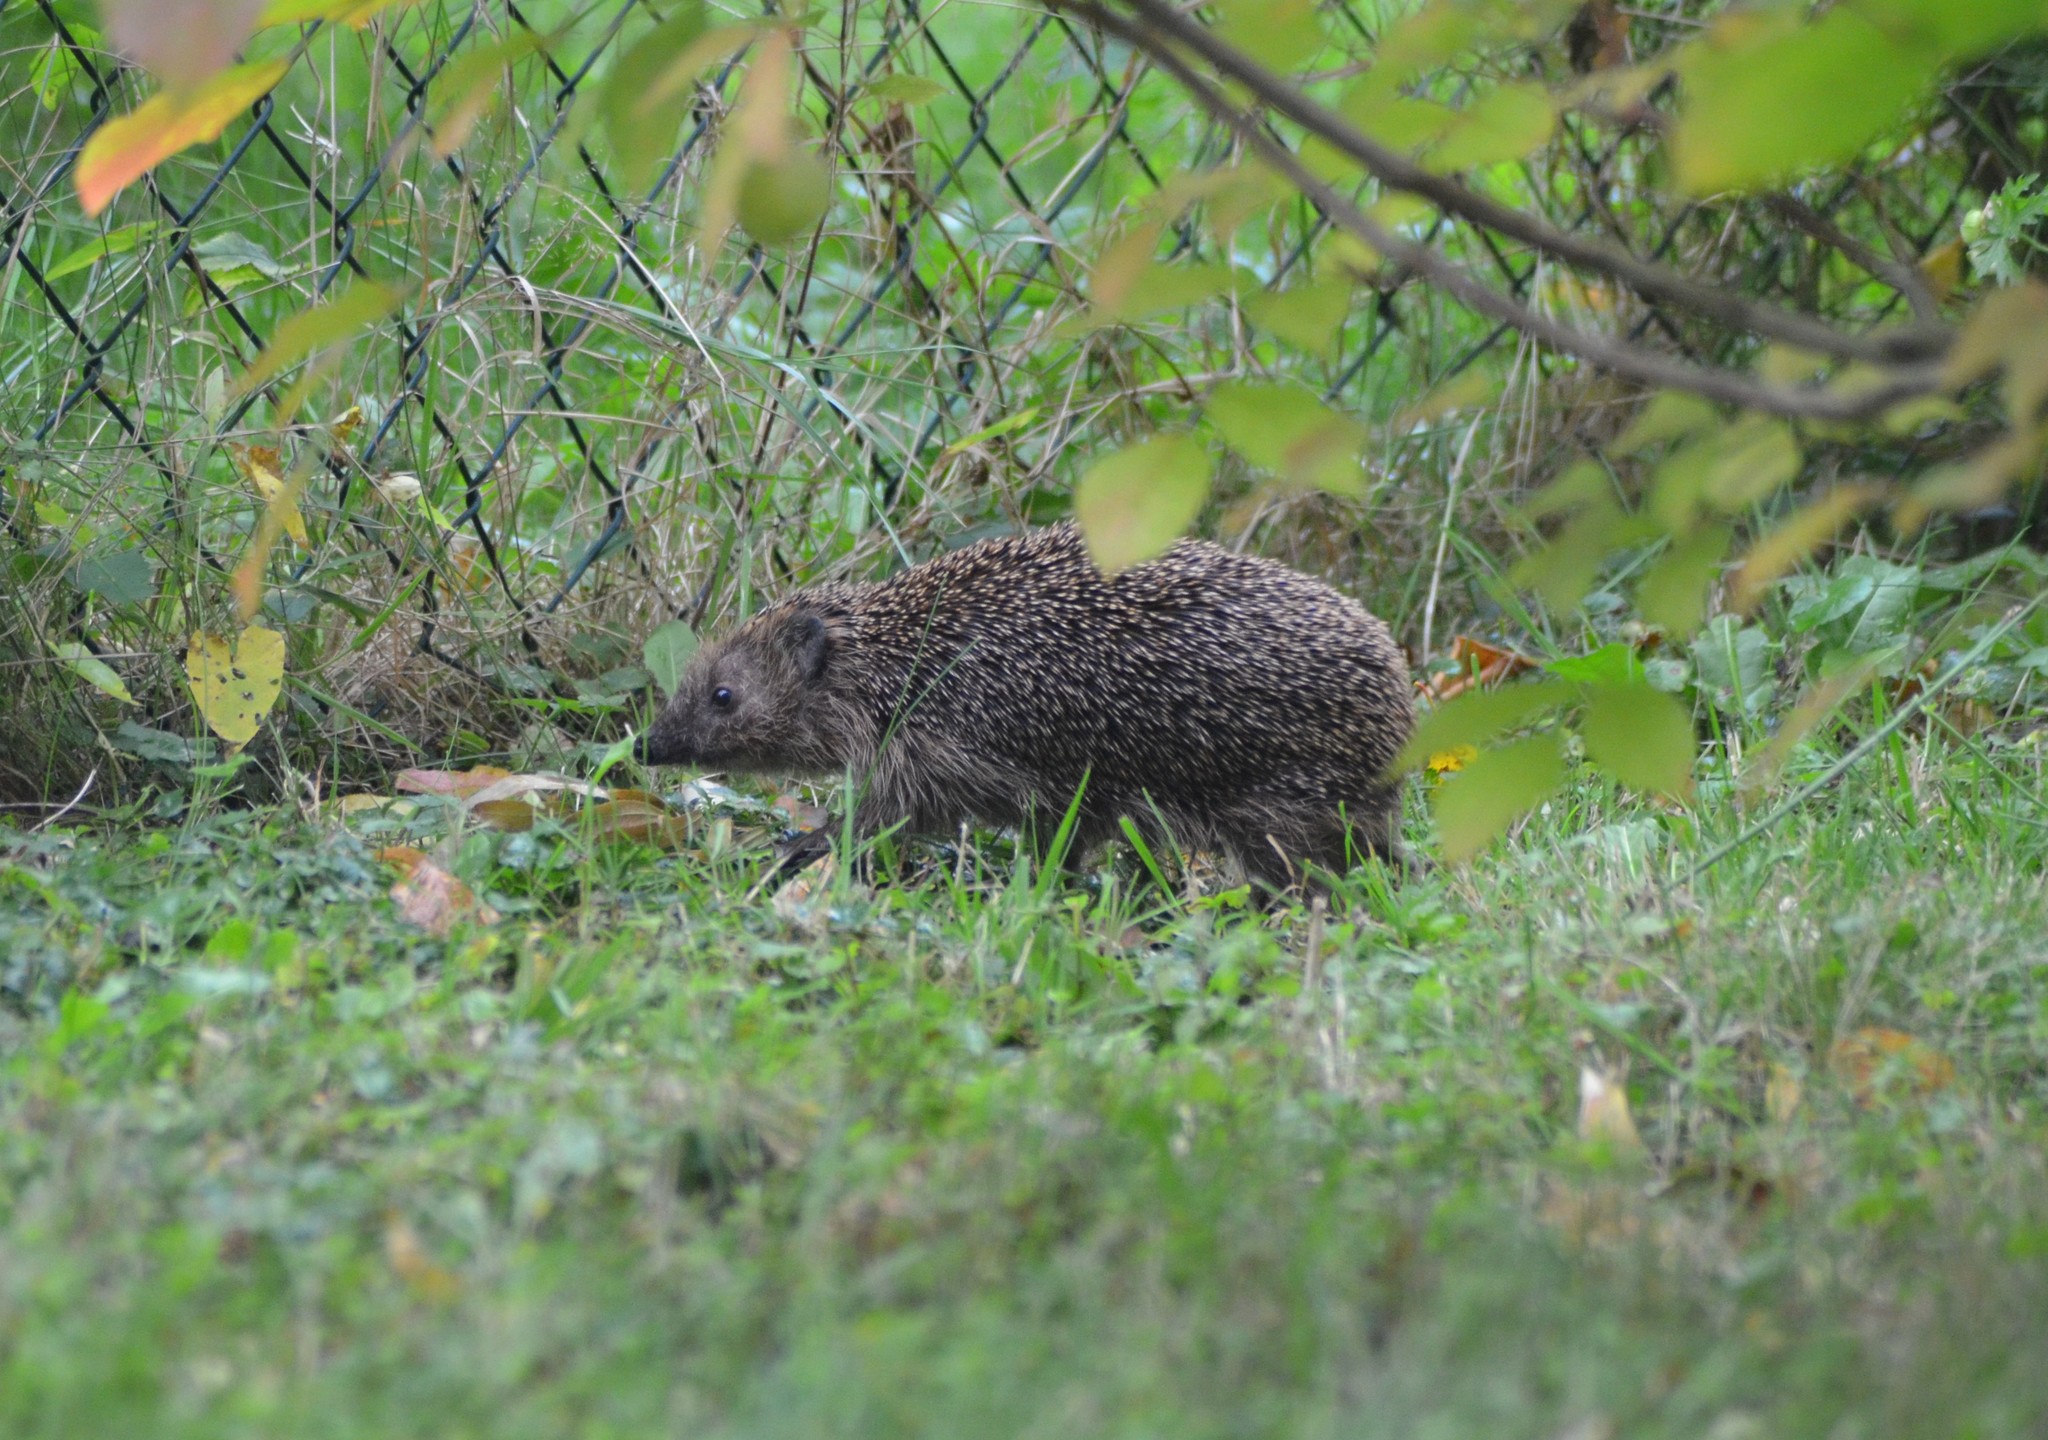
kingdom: Animalia
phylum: Chordata
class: Mammalia
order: Erinaceomorpha
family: Erinaceidae
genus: Erinaceus
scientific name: Erinaceus europaeus
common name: West european hedgehog
